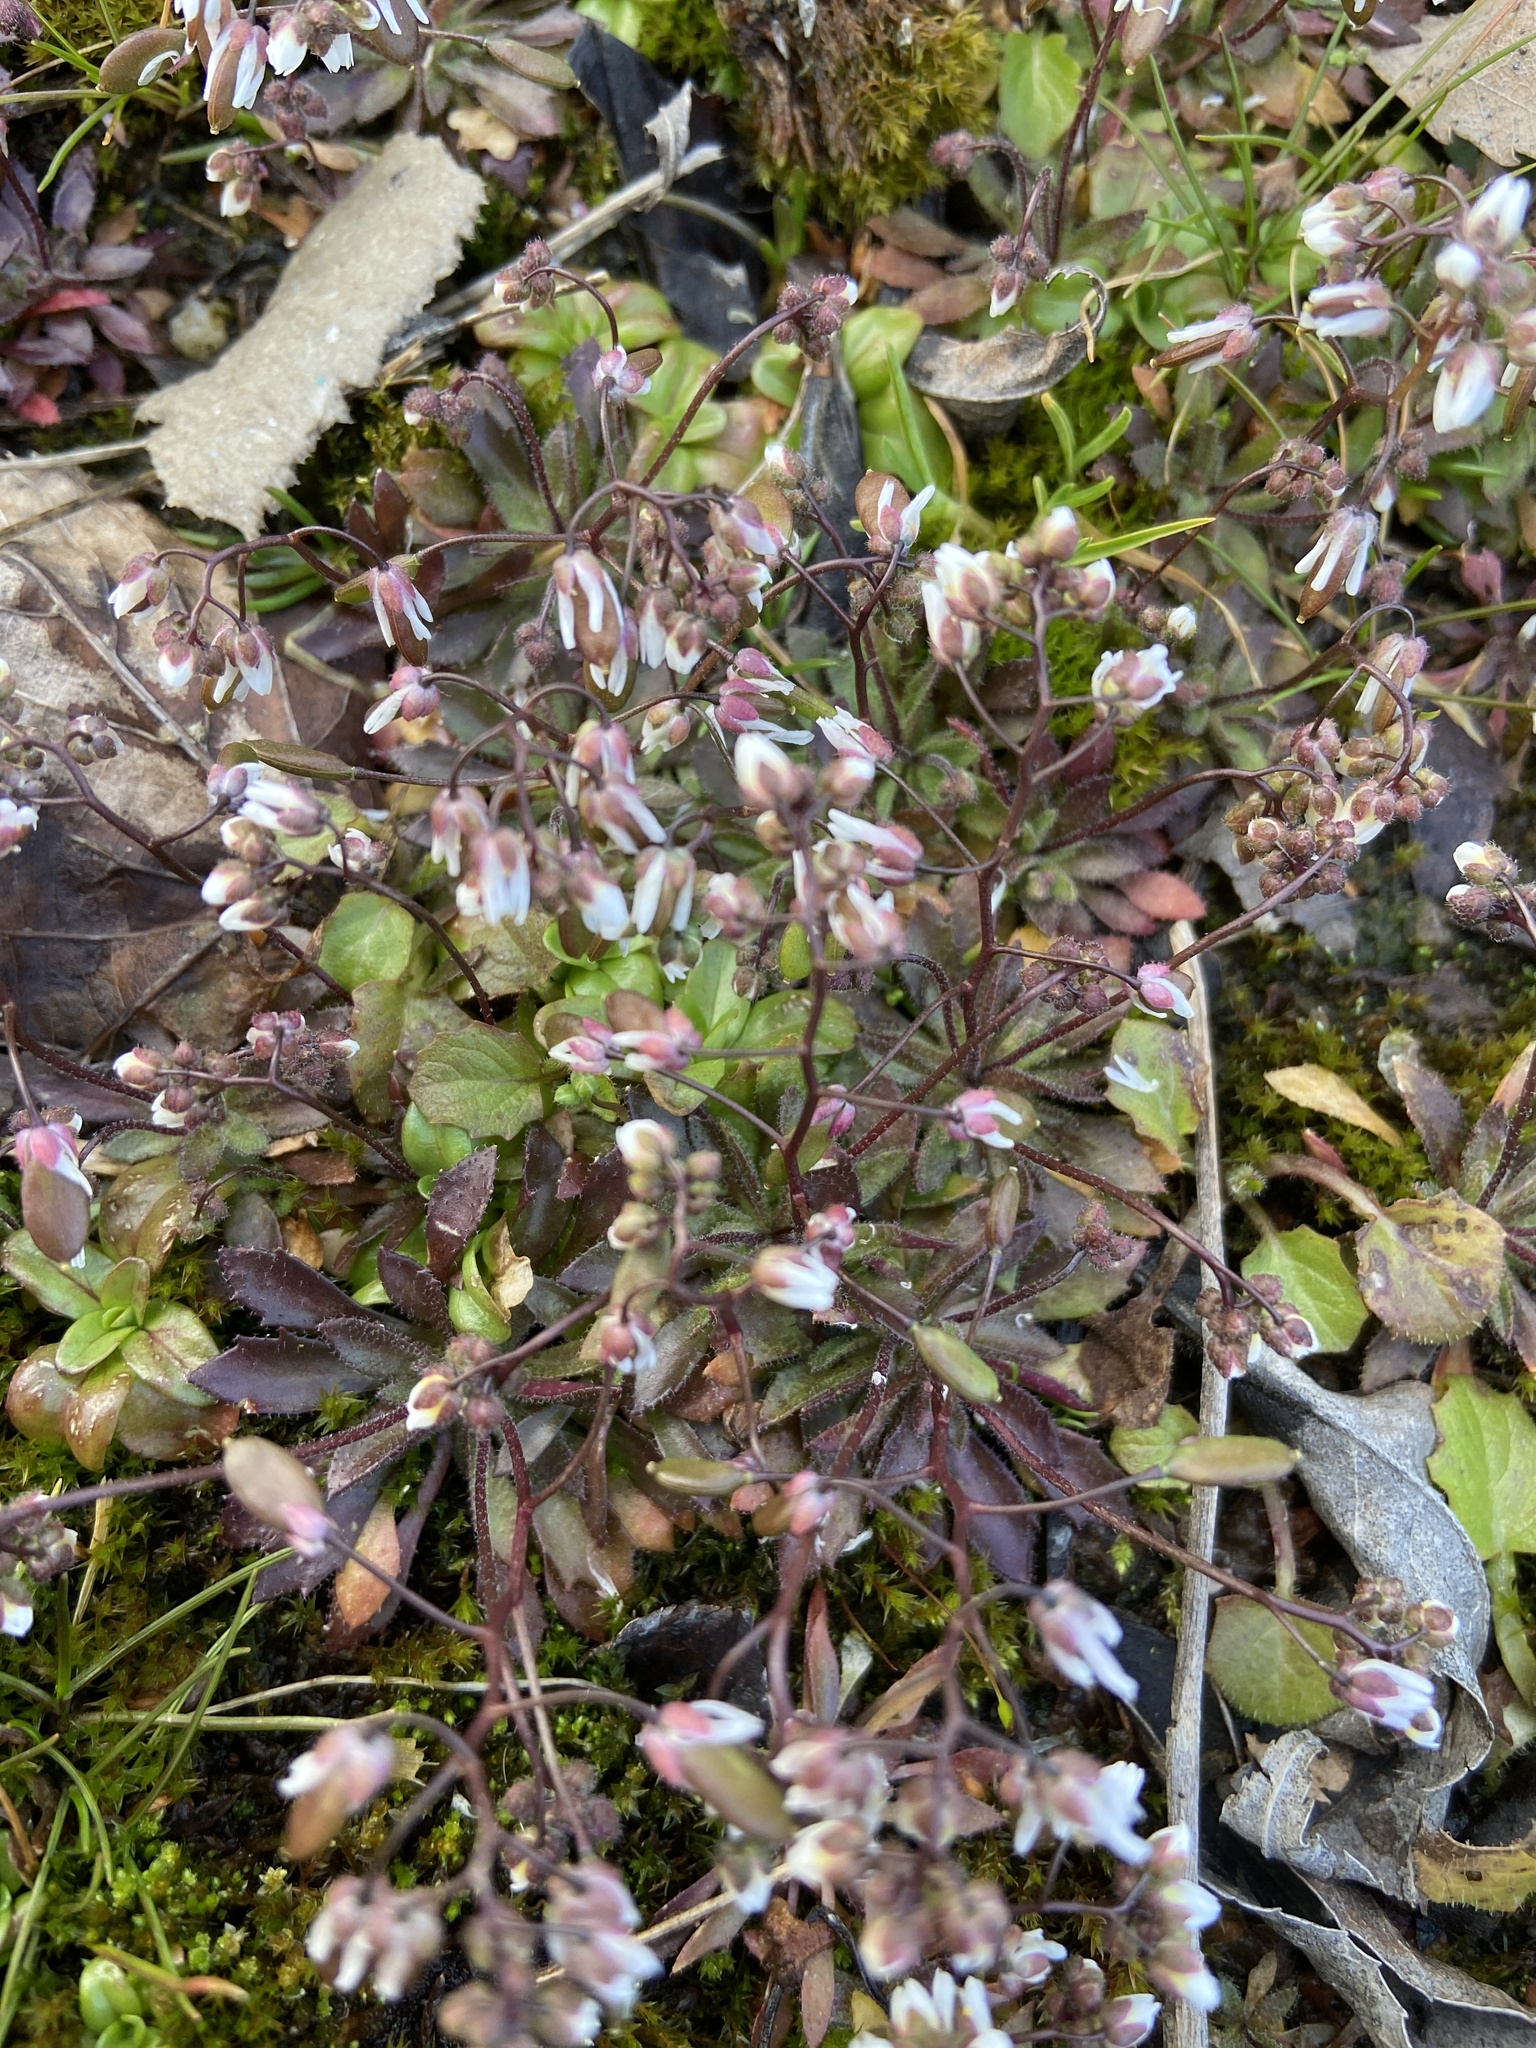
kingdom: Plantae
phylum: Tracheophyta
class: Magnoliopsida
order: Brassicales
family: Brassicaceae
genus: Draba
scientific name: Draba verna
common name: Spring draba
